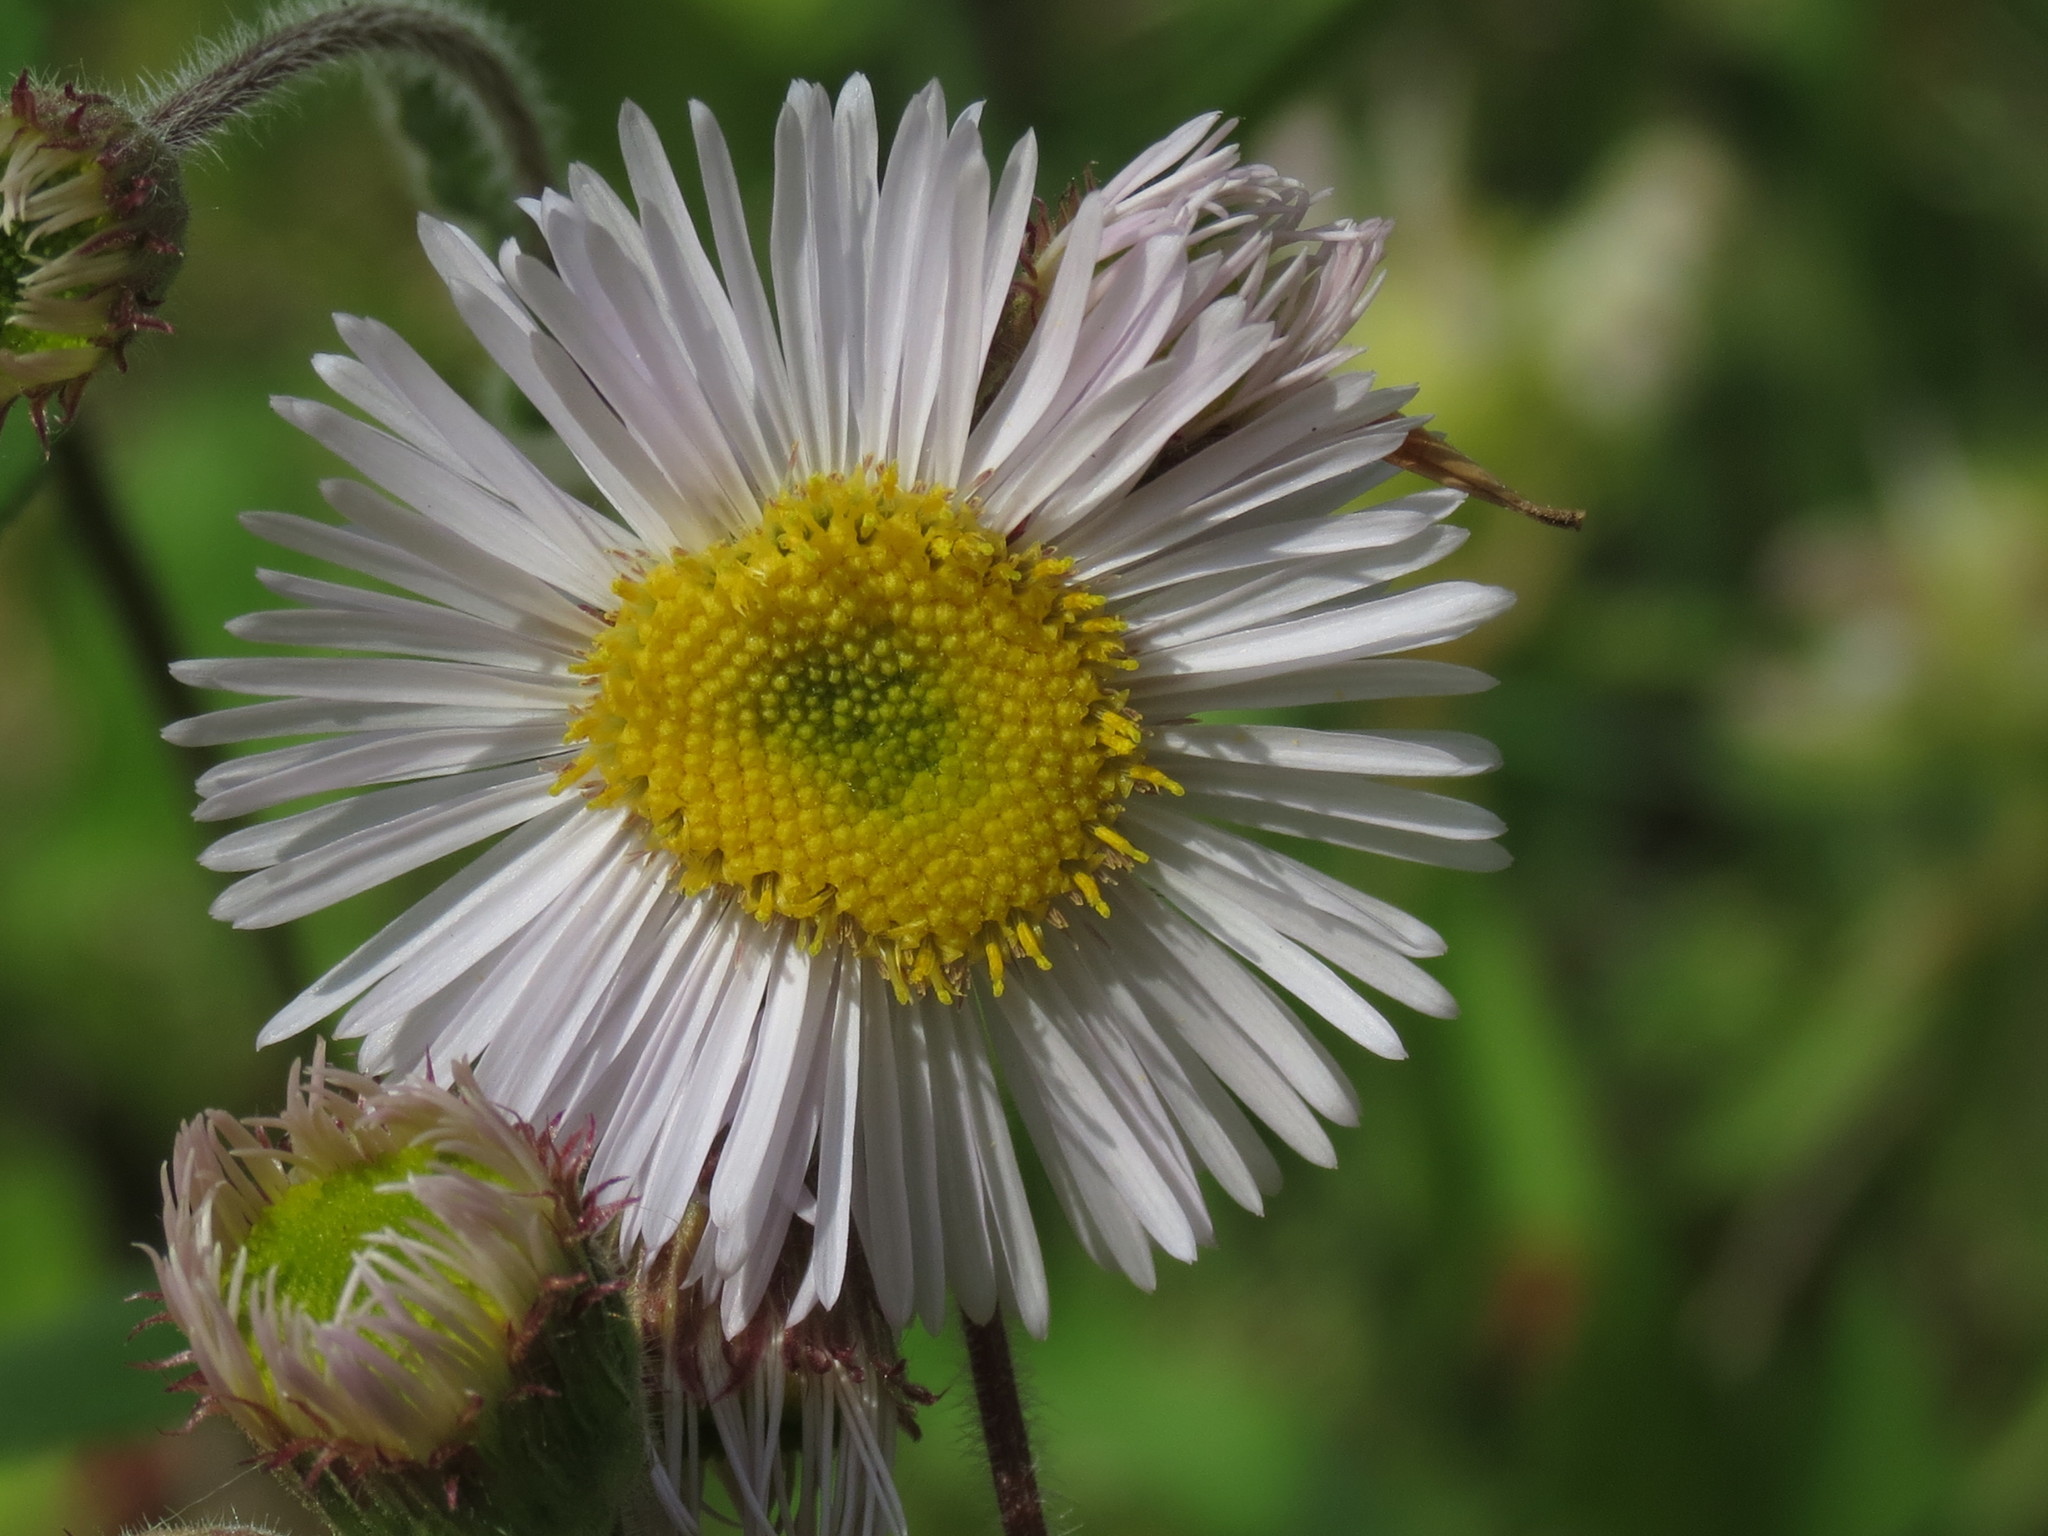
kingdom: Plantae
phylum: Tracheophyta
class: Magnoliopsida
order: Asterales
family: Asteraceae
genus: Erigeron
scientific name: Erigeron pulchellus
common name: Hairy fleabane
